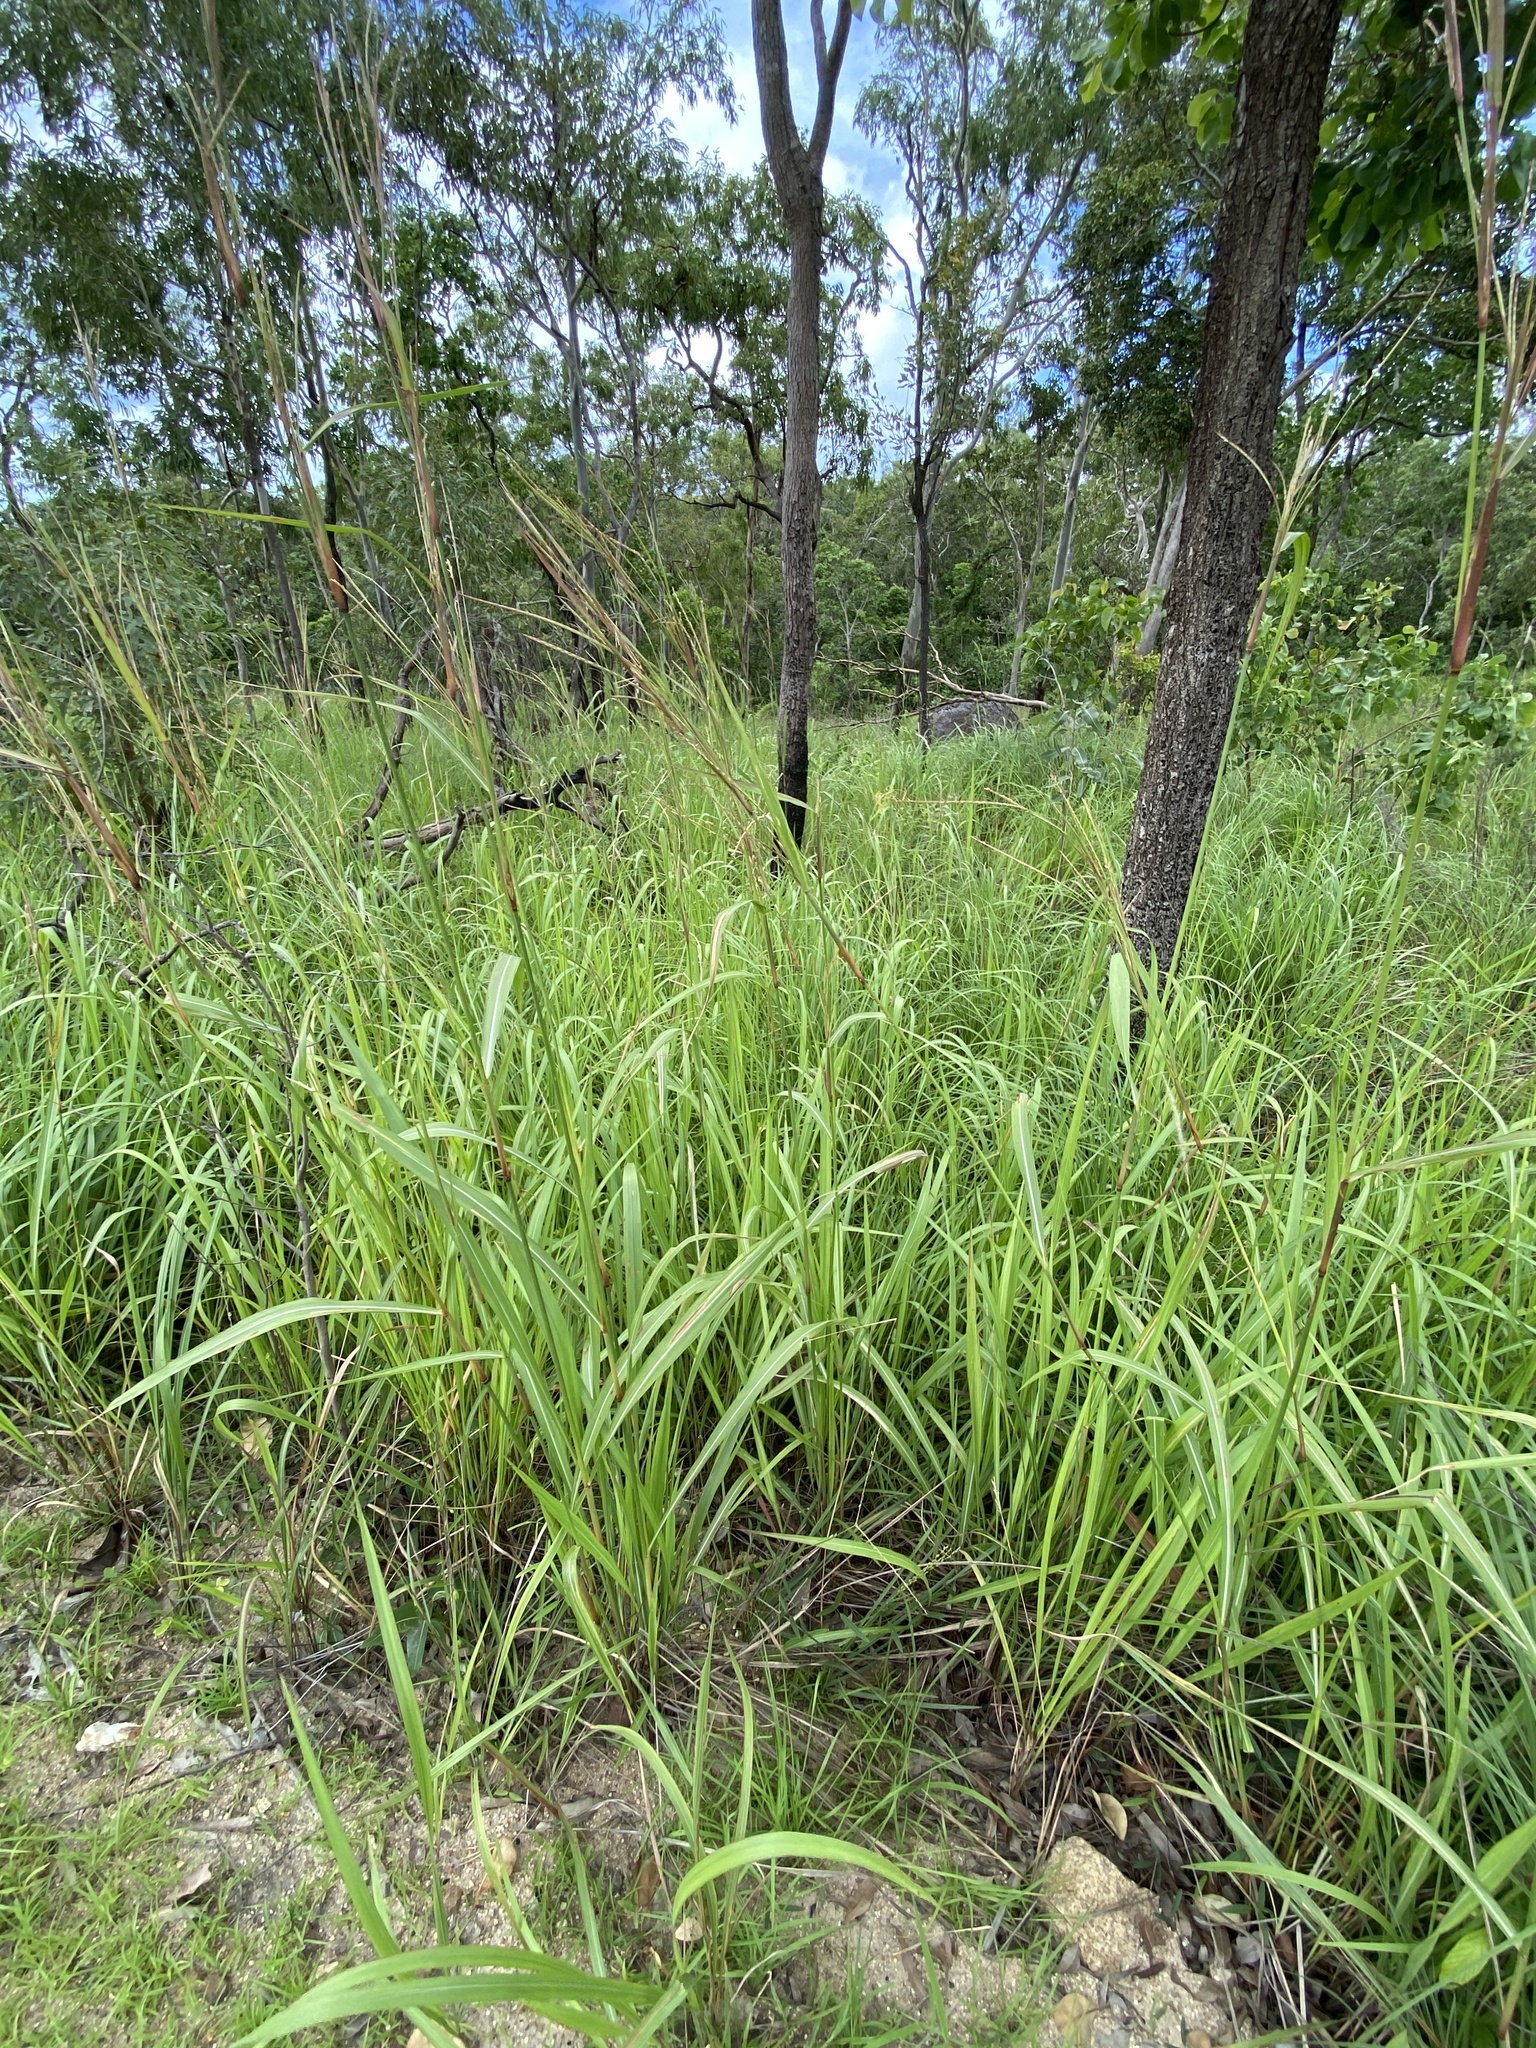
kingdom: Plantae
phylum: Tracheophyta
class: Liliopsida
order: Poales
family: Poaceae
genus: Rottboellia
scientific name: Rottboellia rottboellioides
